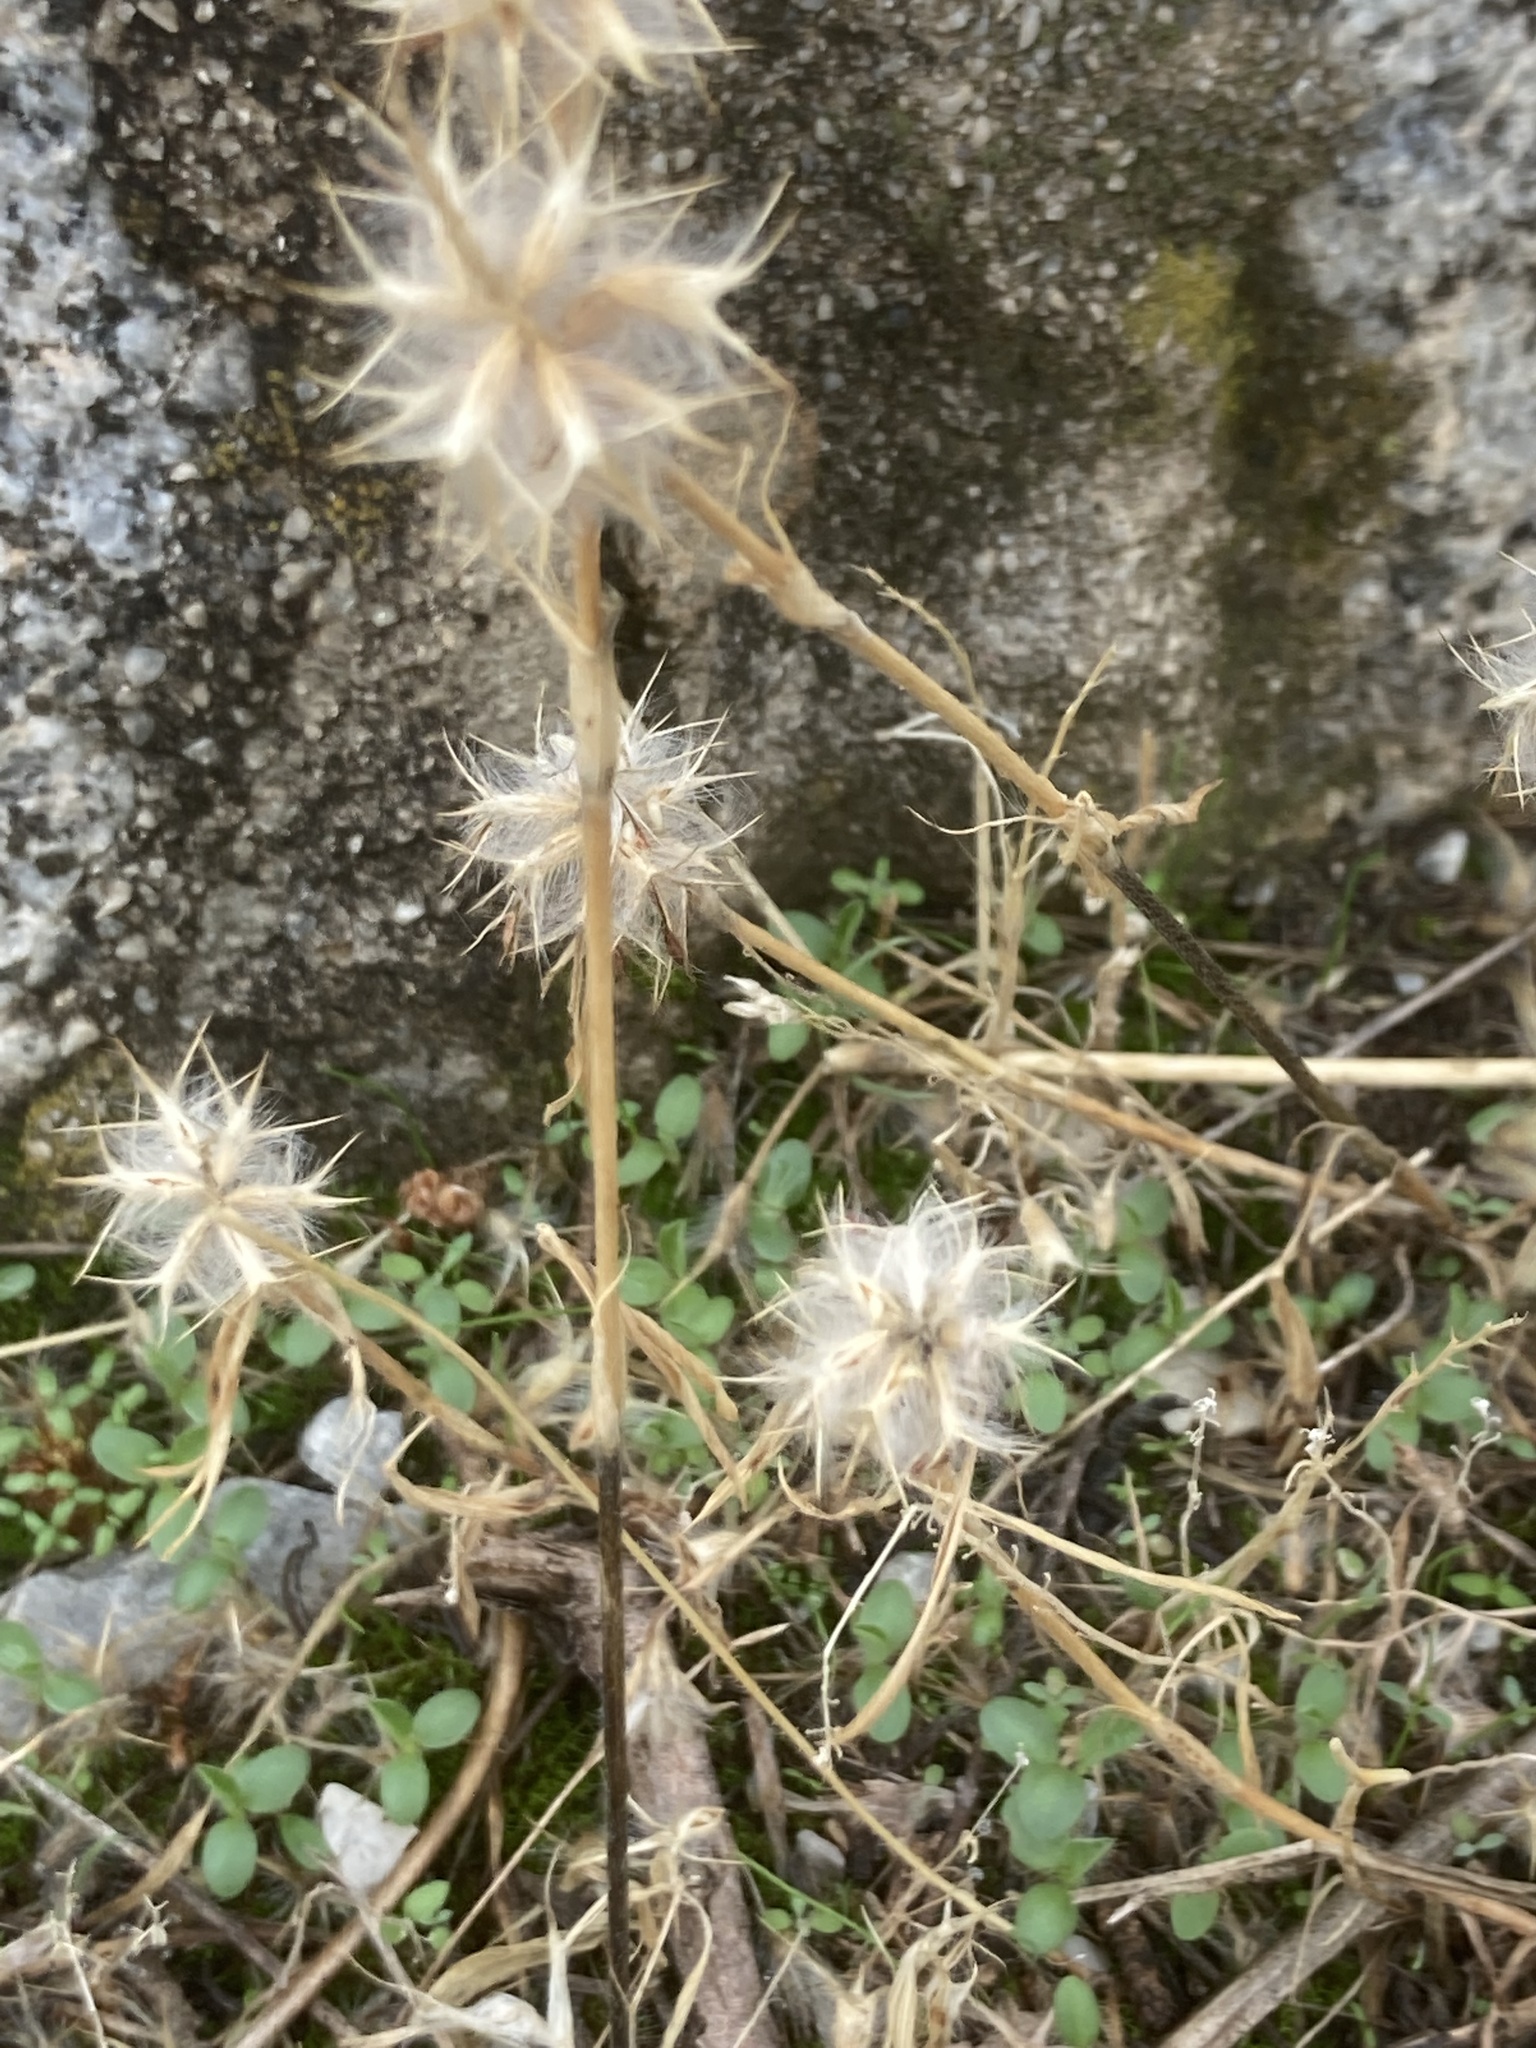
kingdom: Plantae
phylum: Tracheophyta
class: Magnoliopsida
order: Fabales
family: Fabaceae
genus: Trifolium
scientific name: Trifolium stellatum
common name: Starry clover
